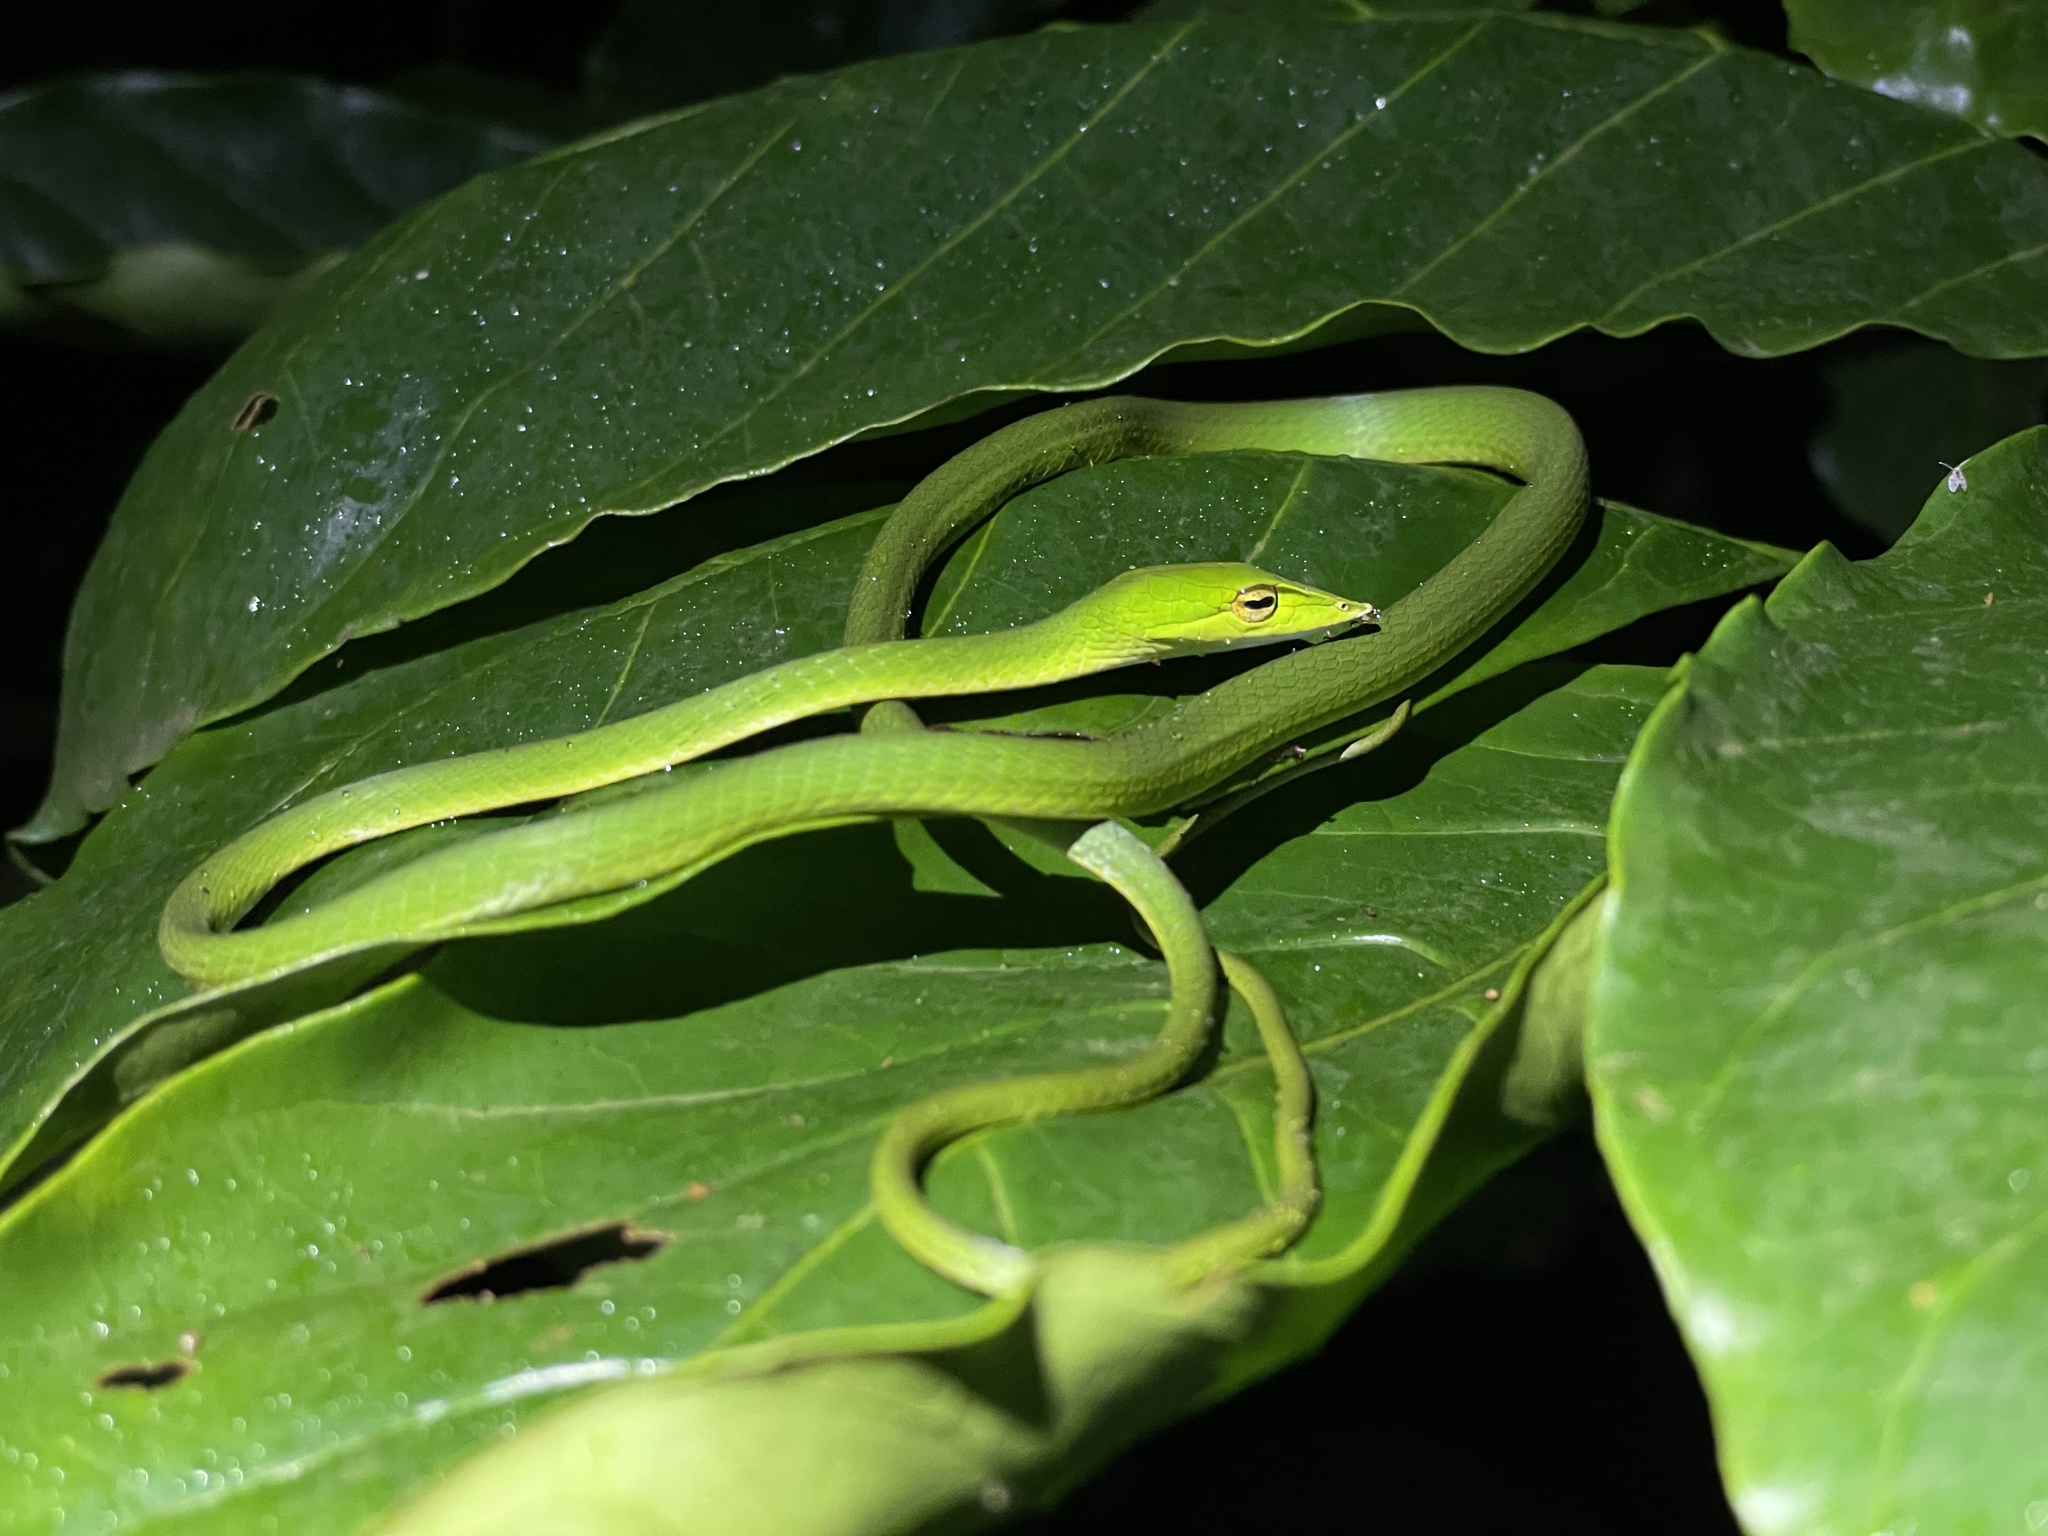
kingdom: Animalia
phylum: Chordata
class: Squamata
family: Colubridae
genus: Ahaetulla
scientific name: Ahaetulla farnsworthi
